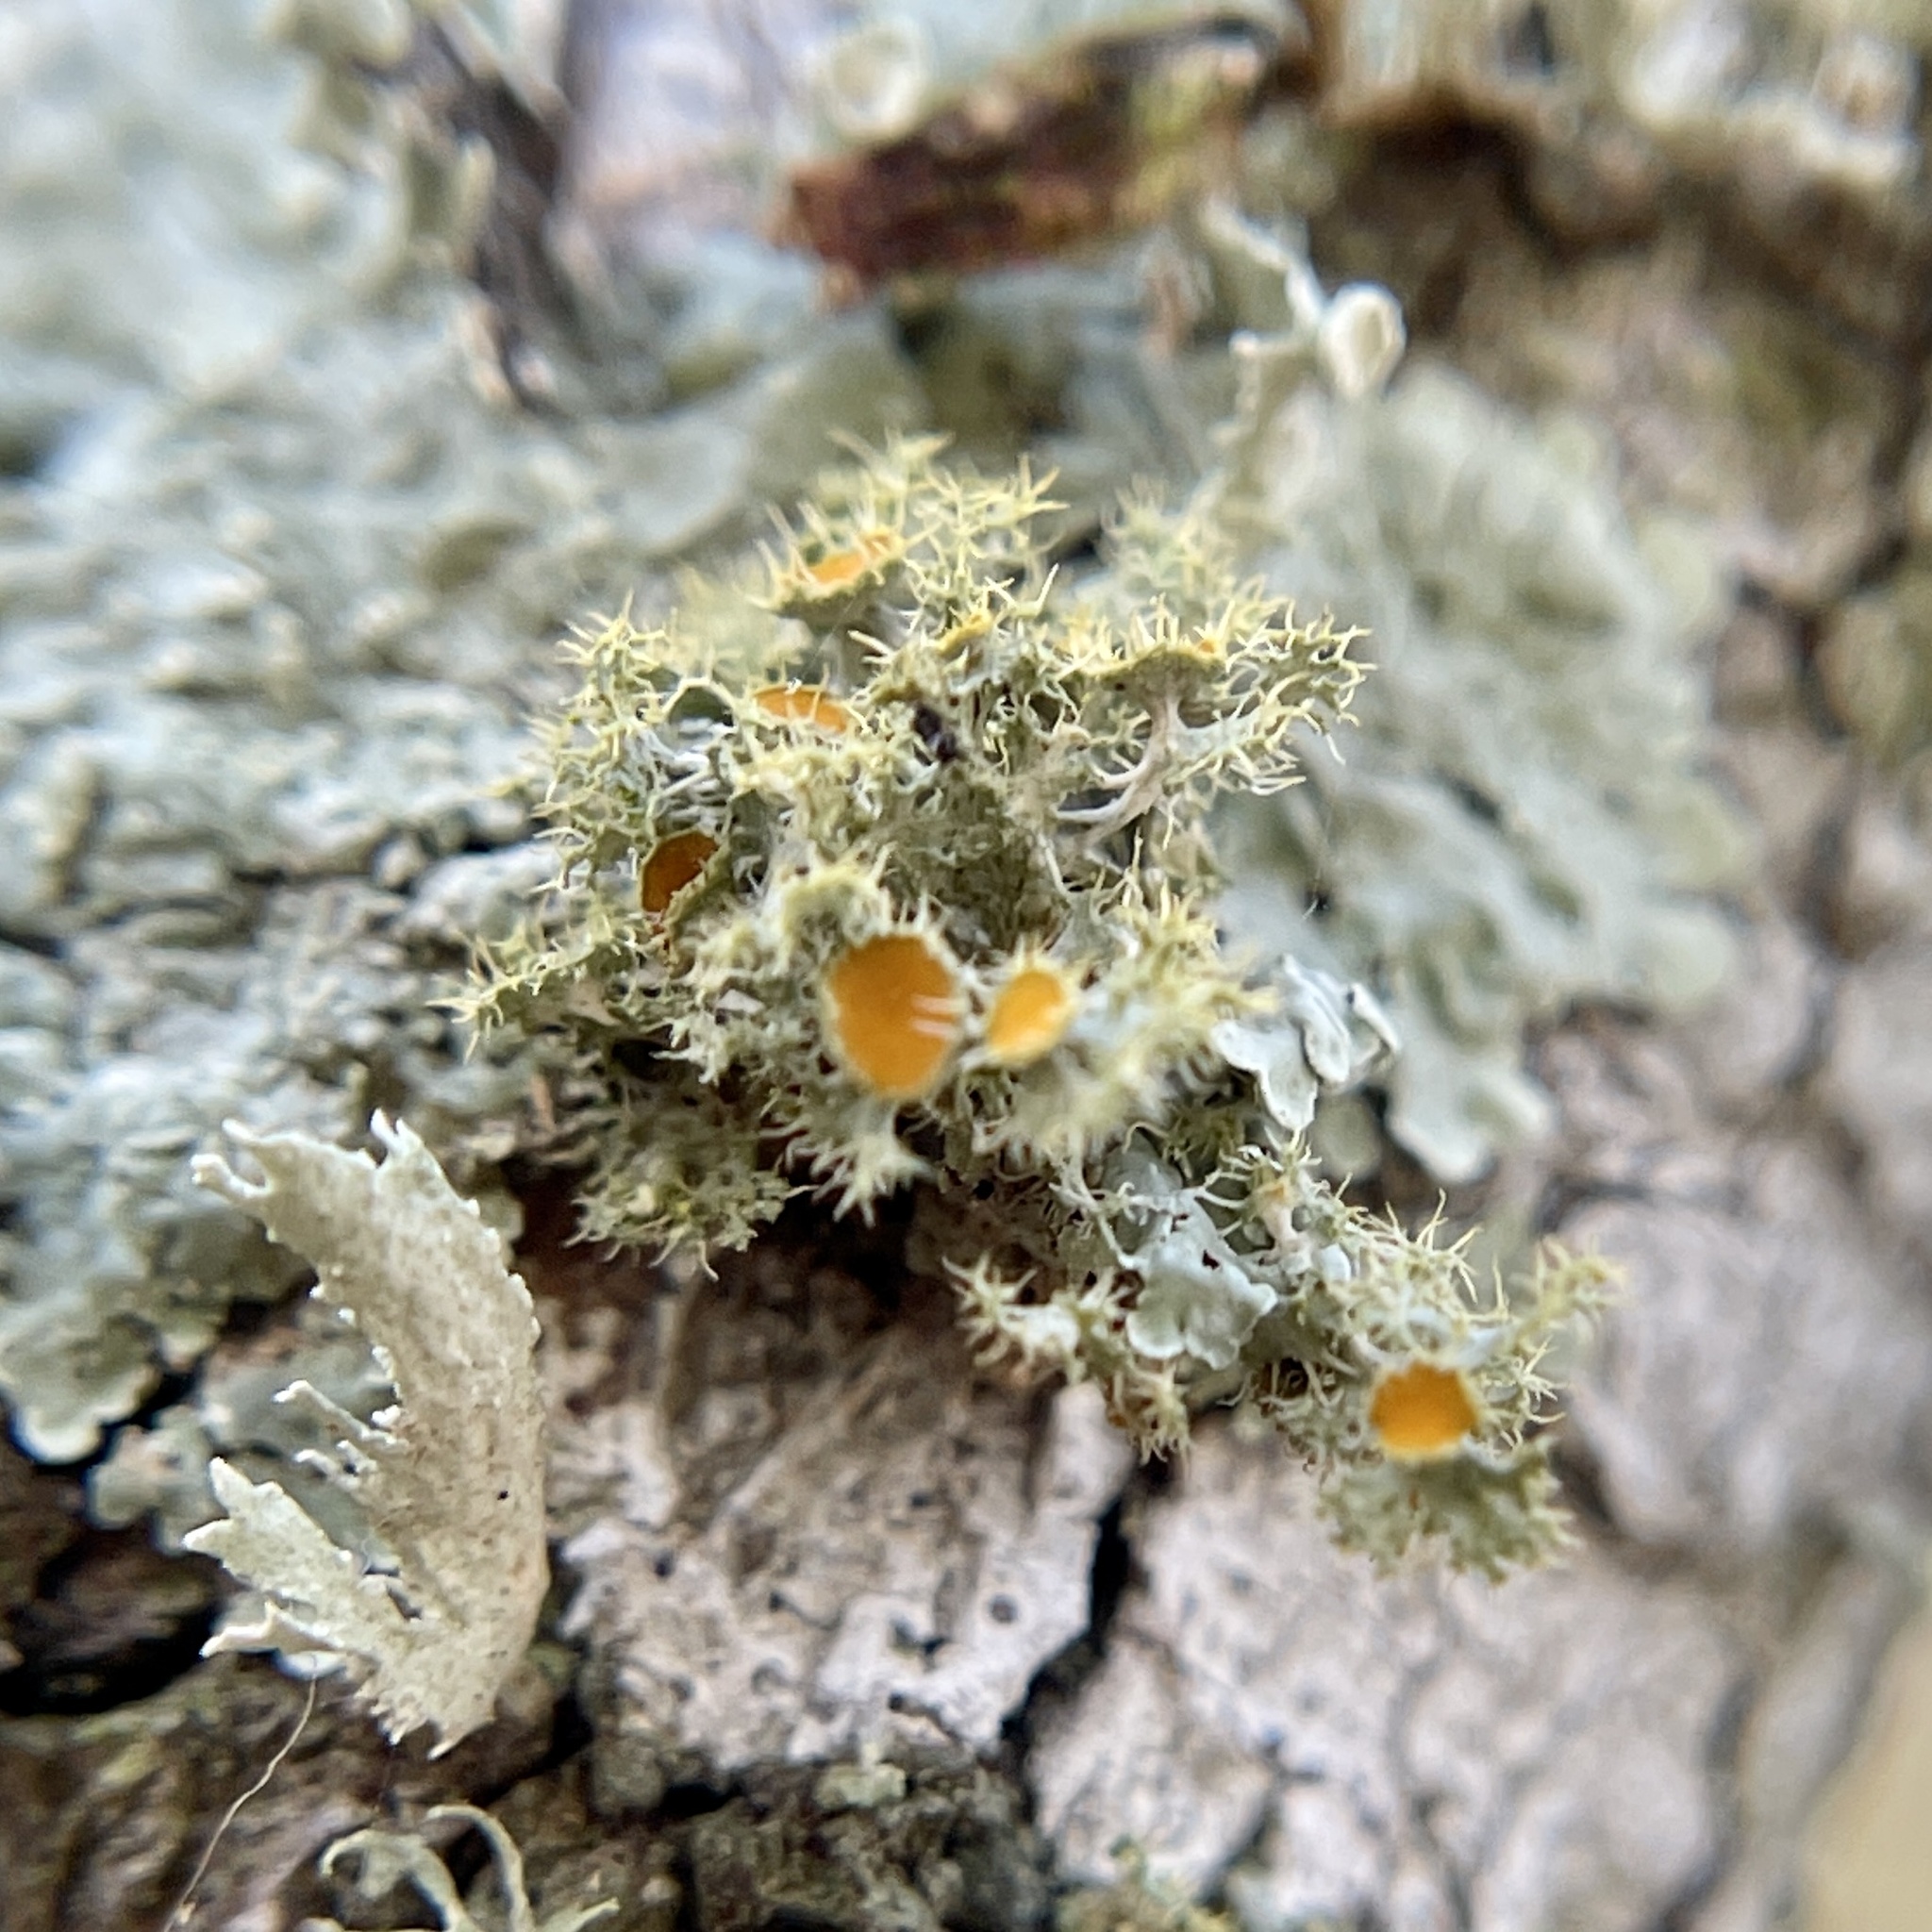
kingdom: Fungi
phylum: Ascomycota
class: Lecanoromycetes
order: Teloschistales
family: Teloschistaceae
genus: Niorma
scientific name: Niorma chrysophthalma
